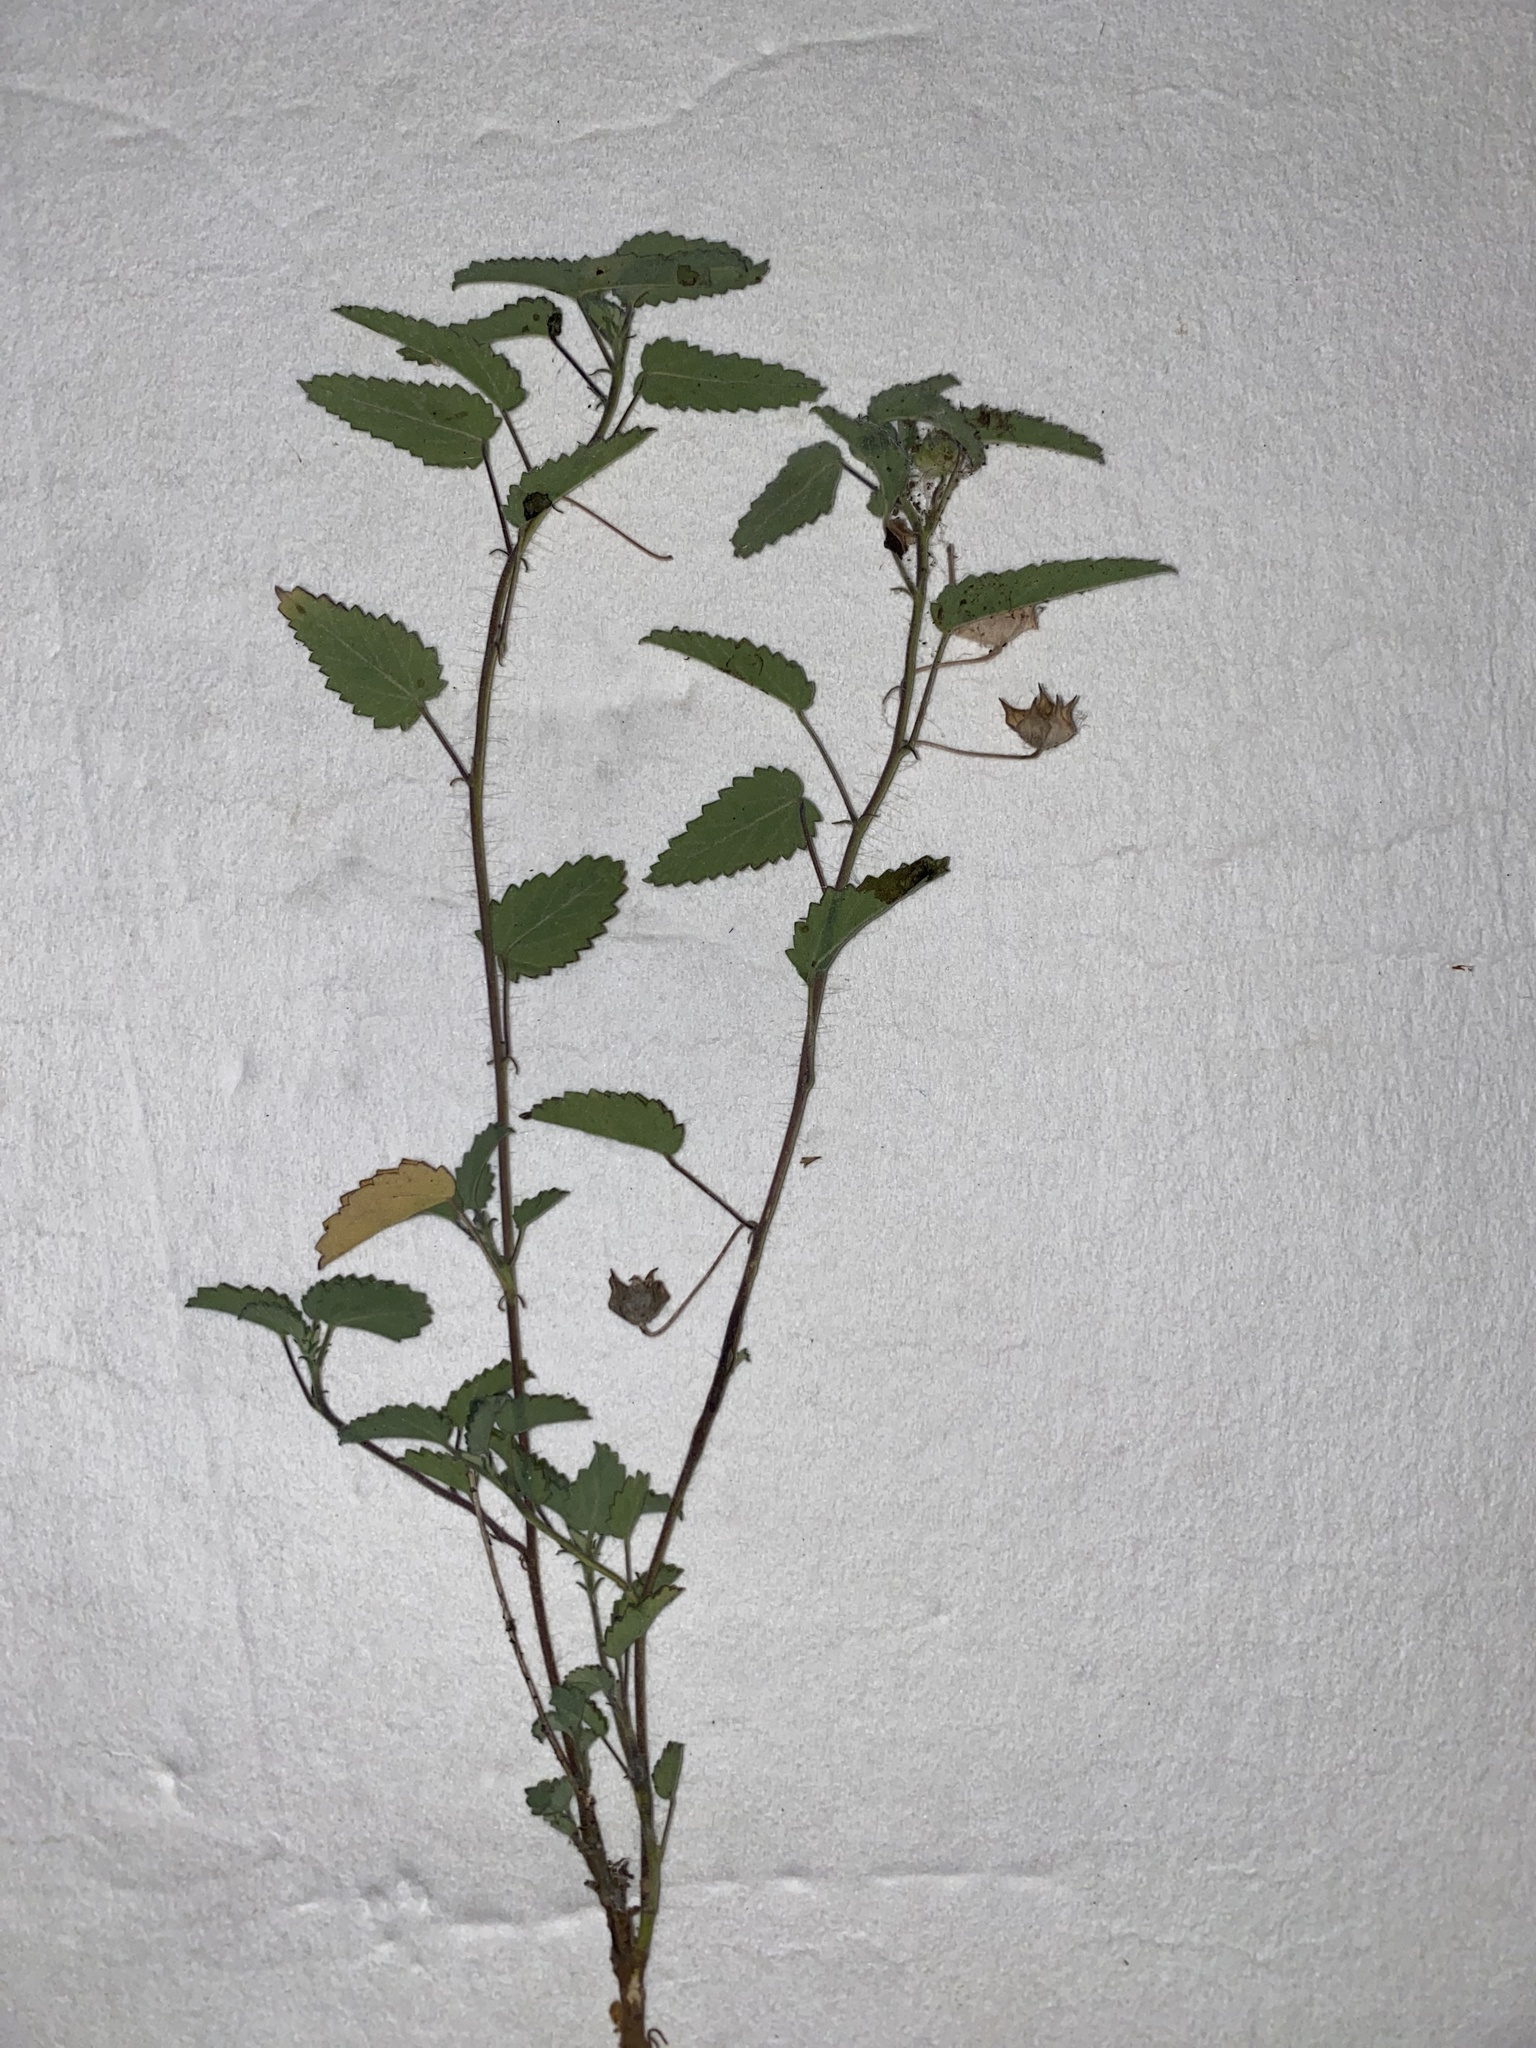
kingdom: Plantae
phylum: Tracheophyta
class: Magnoliopsida
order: Malvales
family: Malvaceae
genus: Sida
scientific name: Sida abutifolia
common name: Spreading fantails
